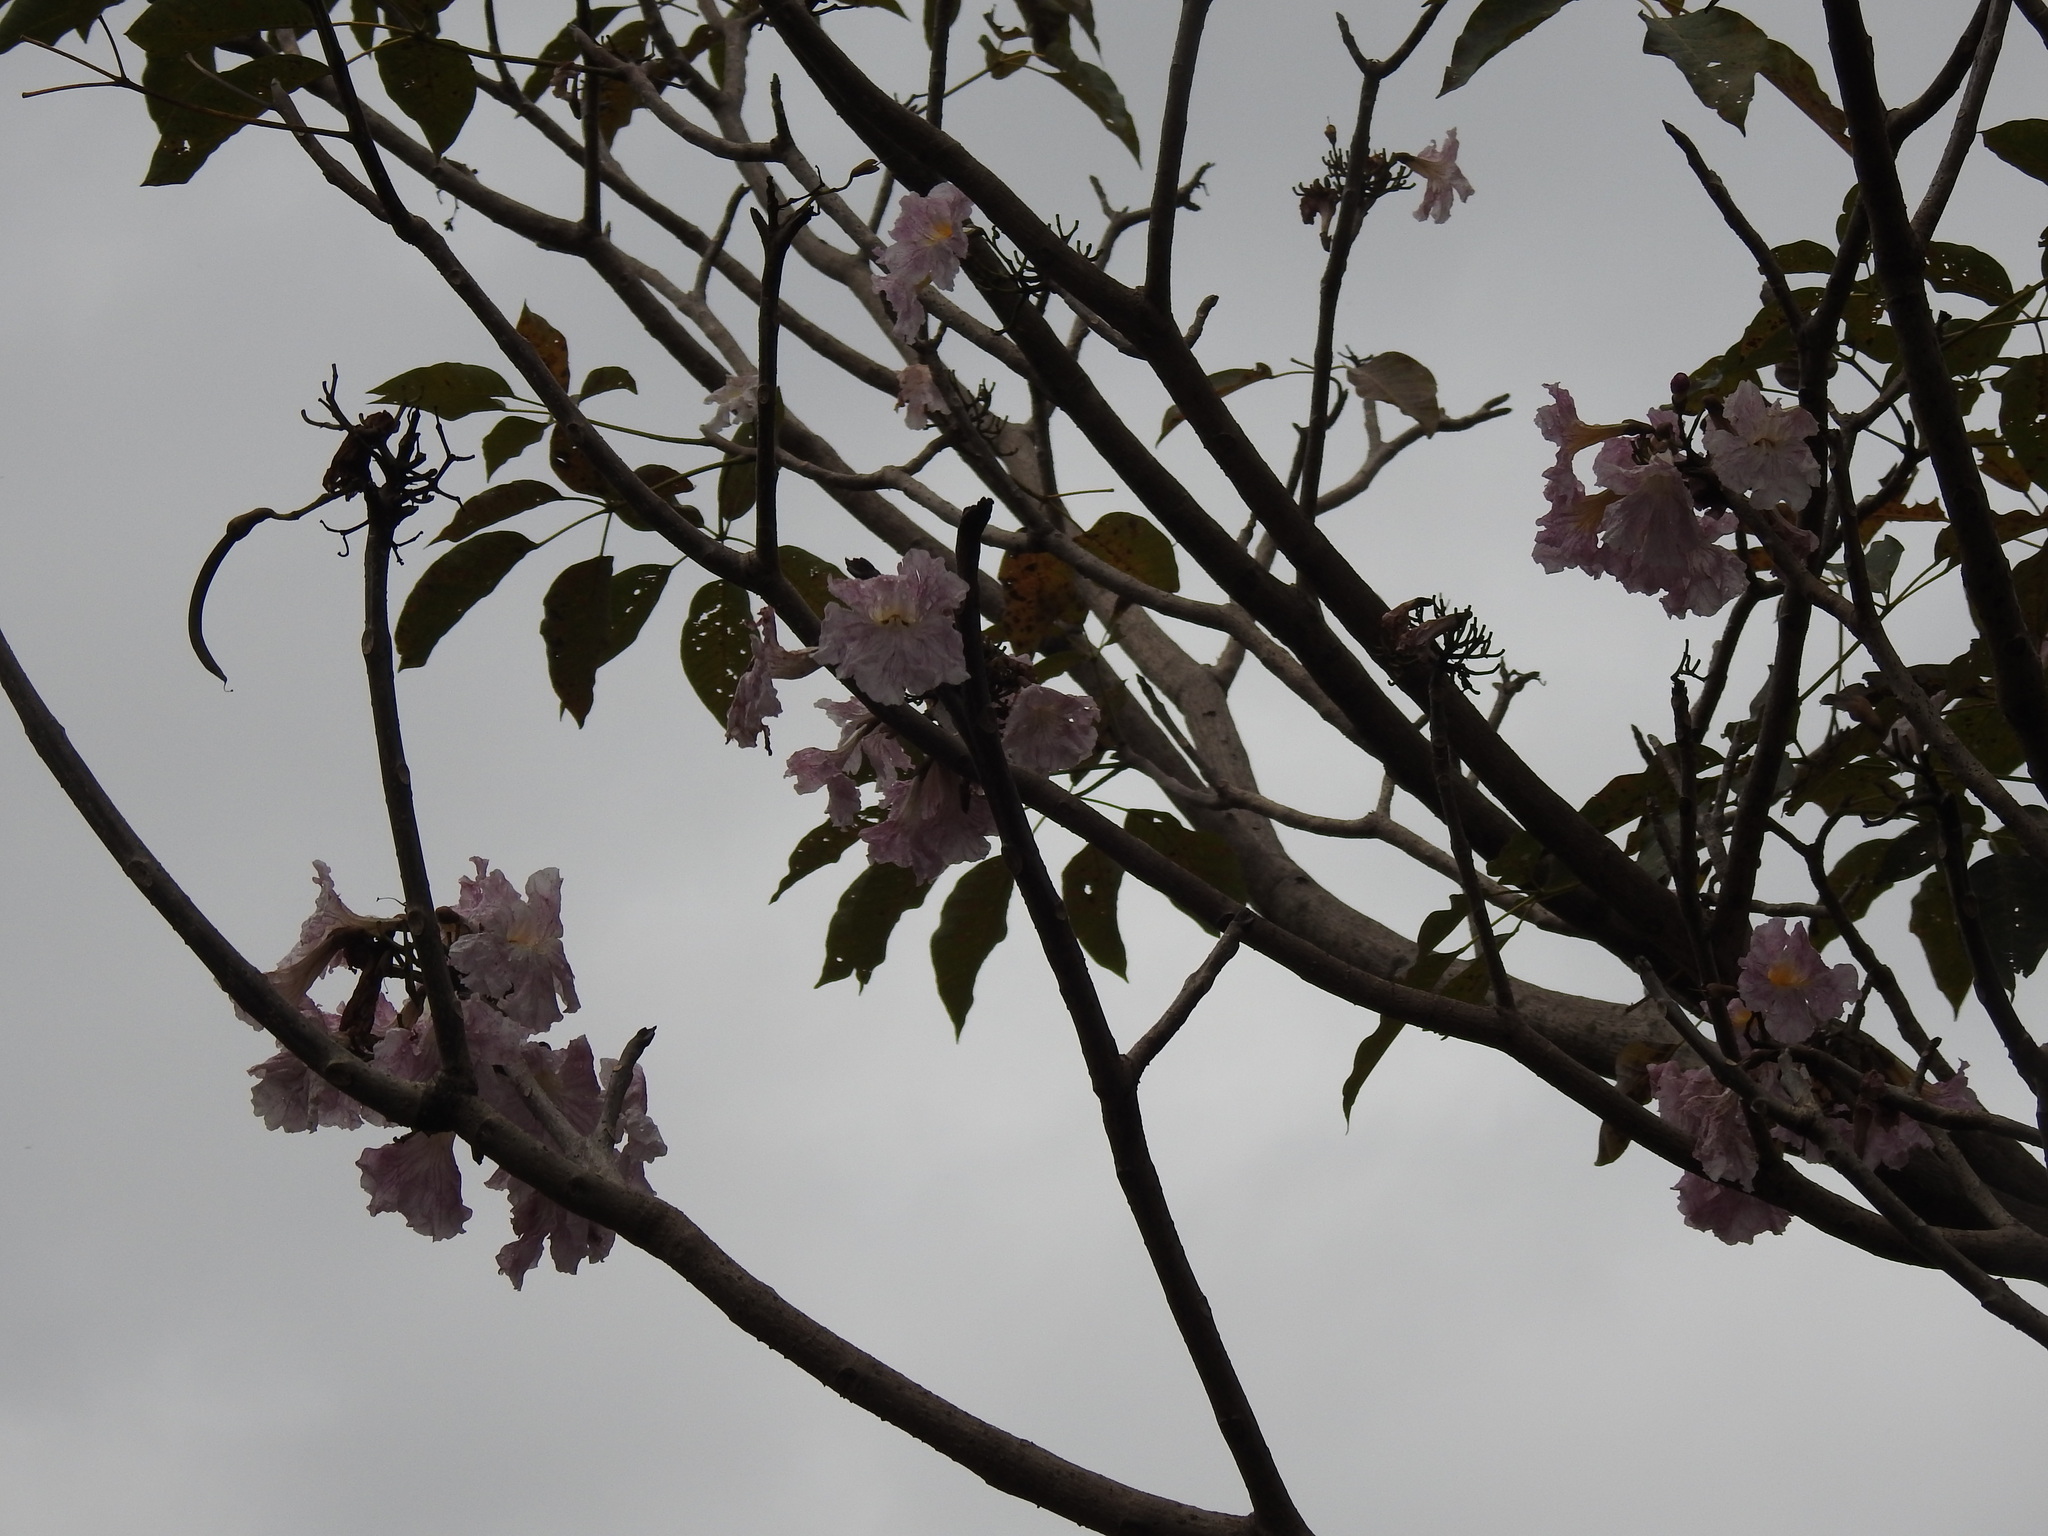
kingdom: Plantae
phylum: Tracheophyta
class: Magnoliopsida
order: Lamiales
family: Bignoniaceae
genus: Tabebuia
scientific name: Tabebuia rosea
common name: Pink poui
